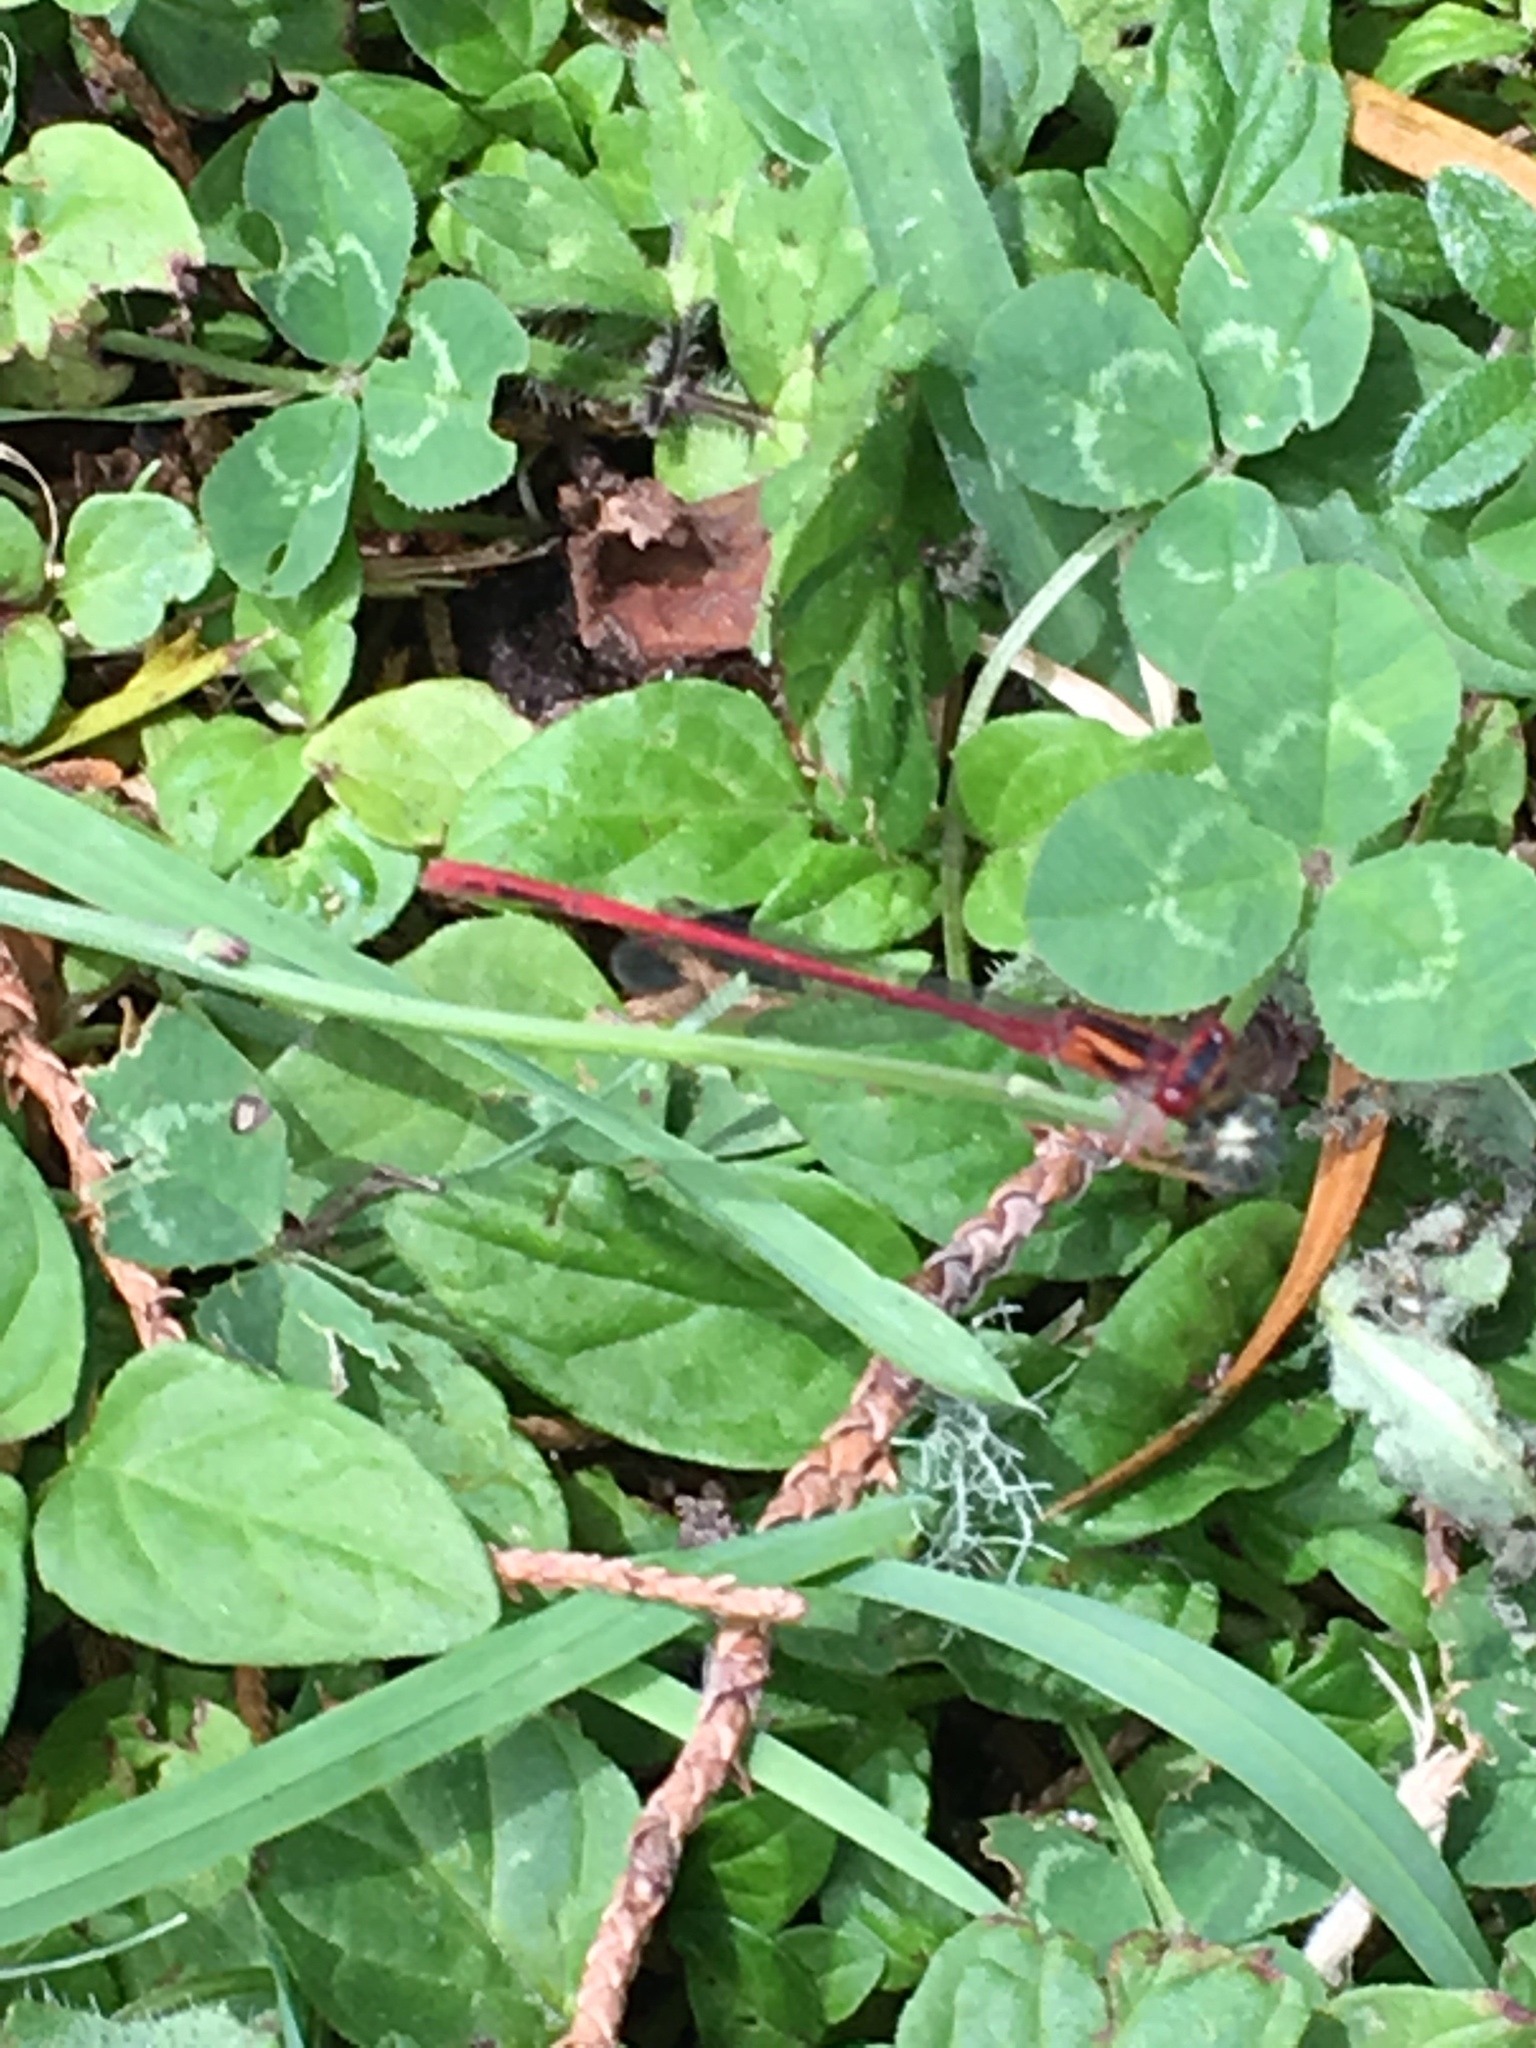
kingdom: Animalia
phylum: Arthropoda
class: Insecta
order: Odonata
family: Coenagrionidae
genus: Xanthocnemis
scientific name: Xanthocnemis zealandica
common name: Common redcoat damselfly
